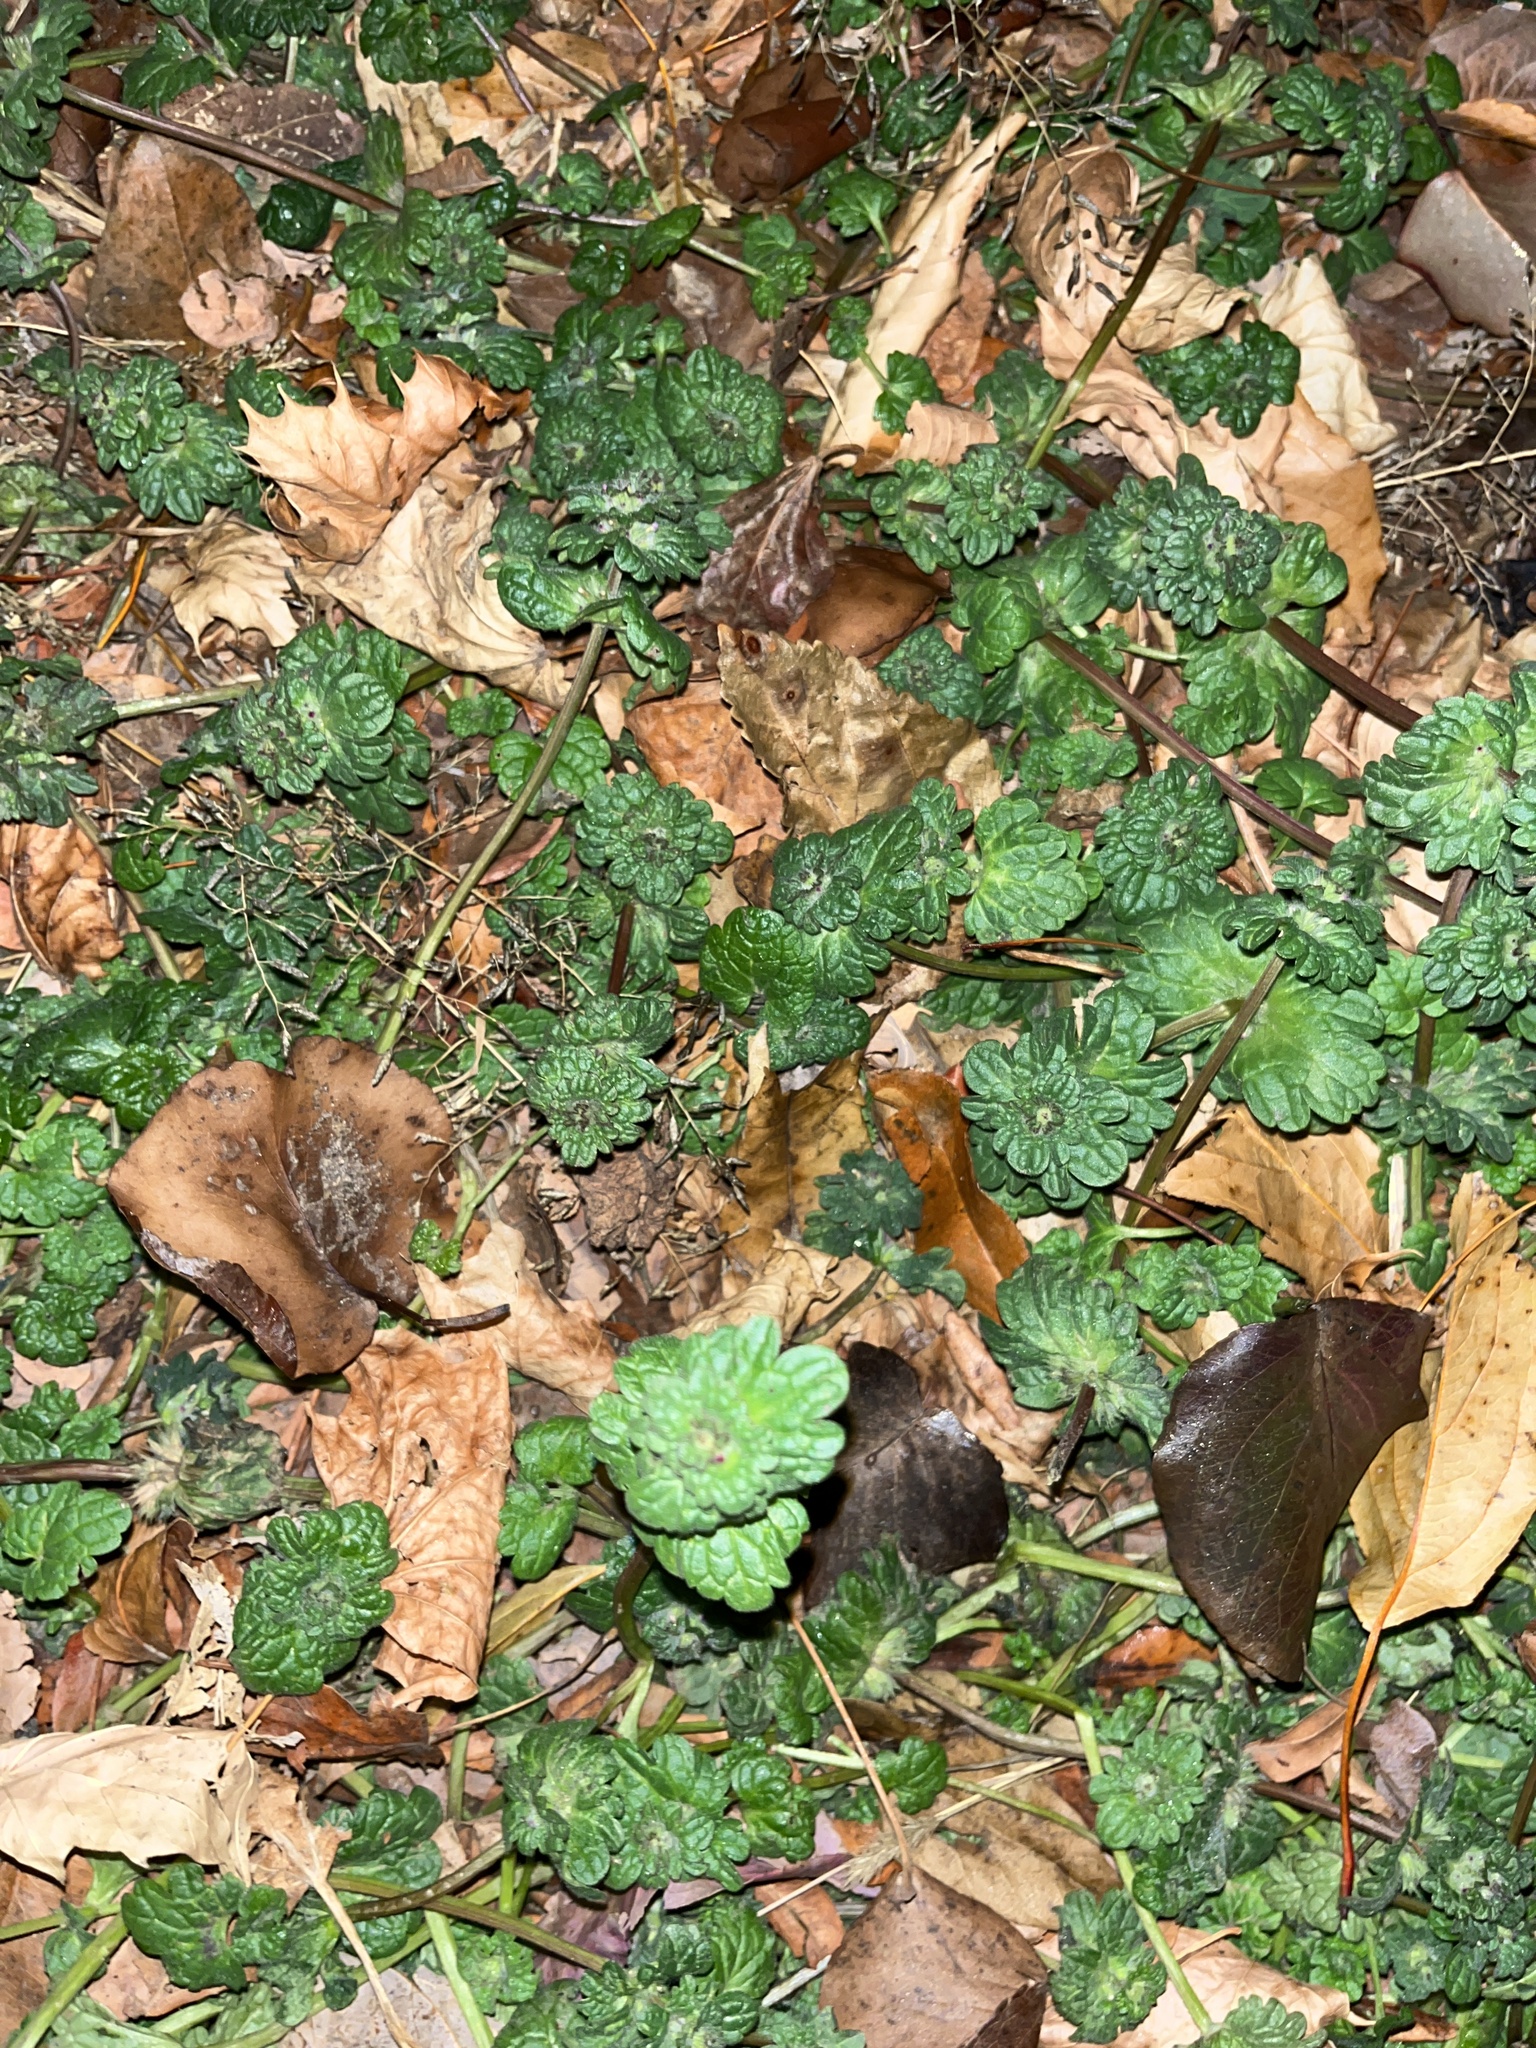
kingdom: Plantae
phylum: Tracheophyta
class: Magnoliopsida
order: Lamiales
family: Lamiaceae
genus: Lamium
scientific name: Lamium amplexicaule
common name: Henbit dead-nettle
